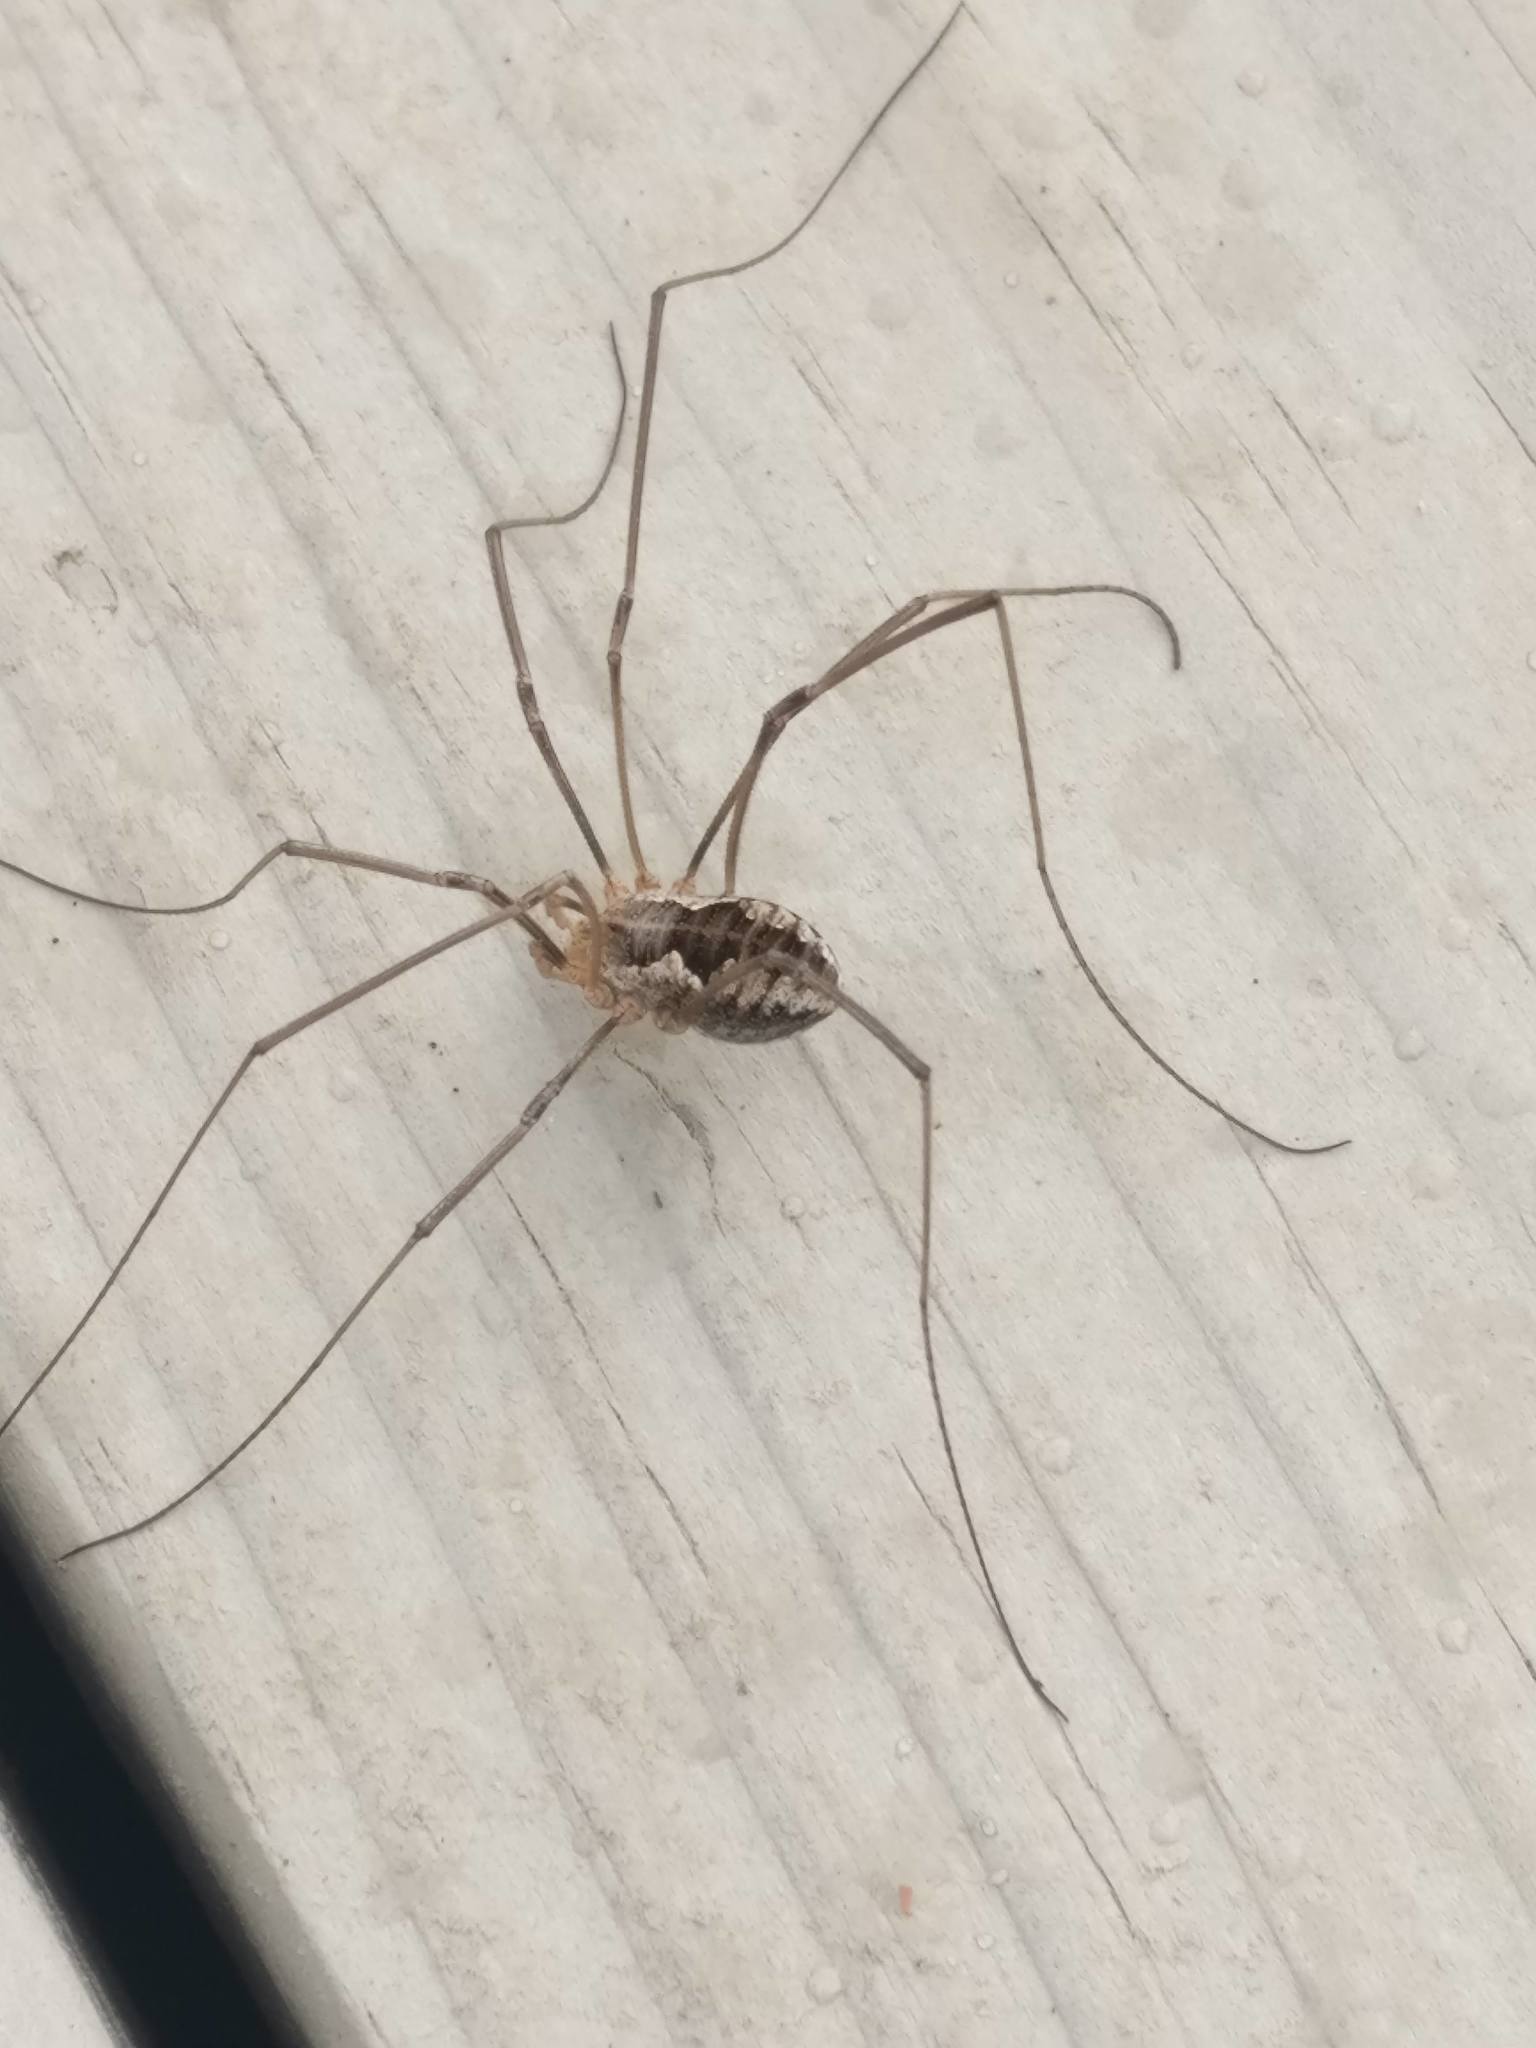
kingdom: Animalia
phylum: Arthropoda
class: Arachnida
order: Opiliones
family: Phalangiidae
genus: Phalangium
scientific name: Phalangium opilio
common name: Daddy longleg
